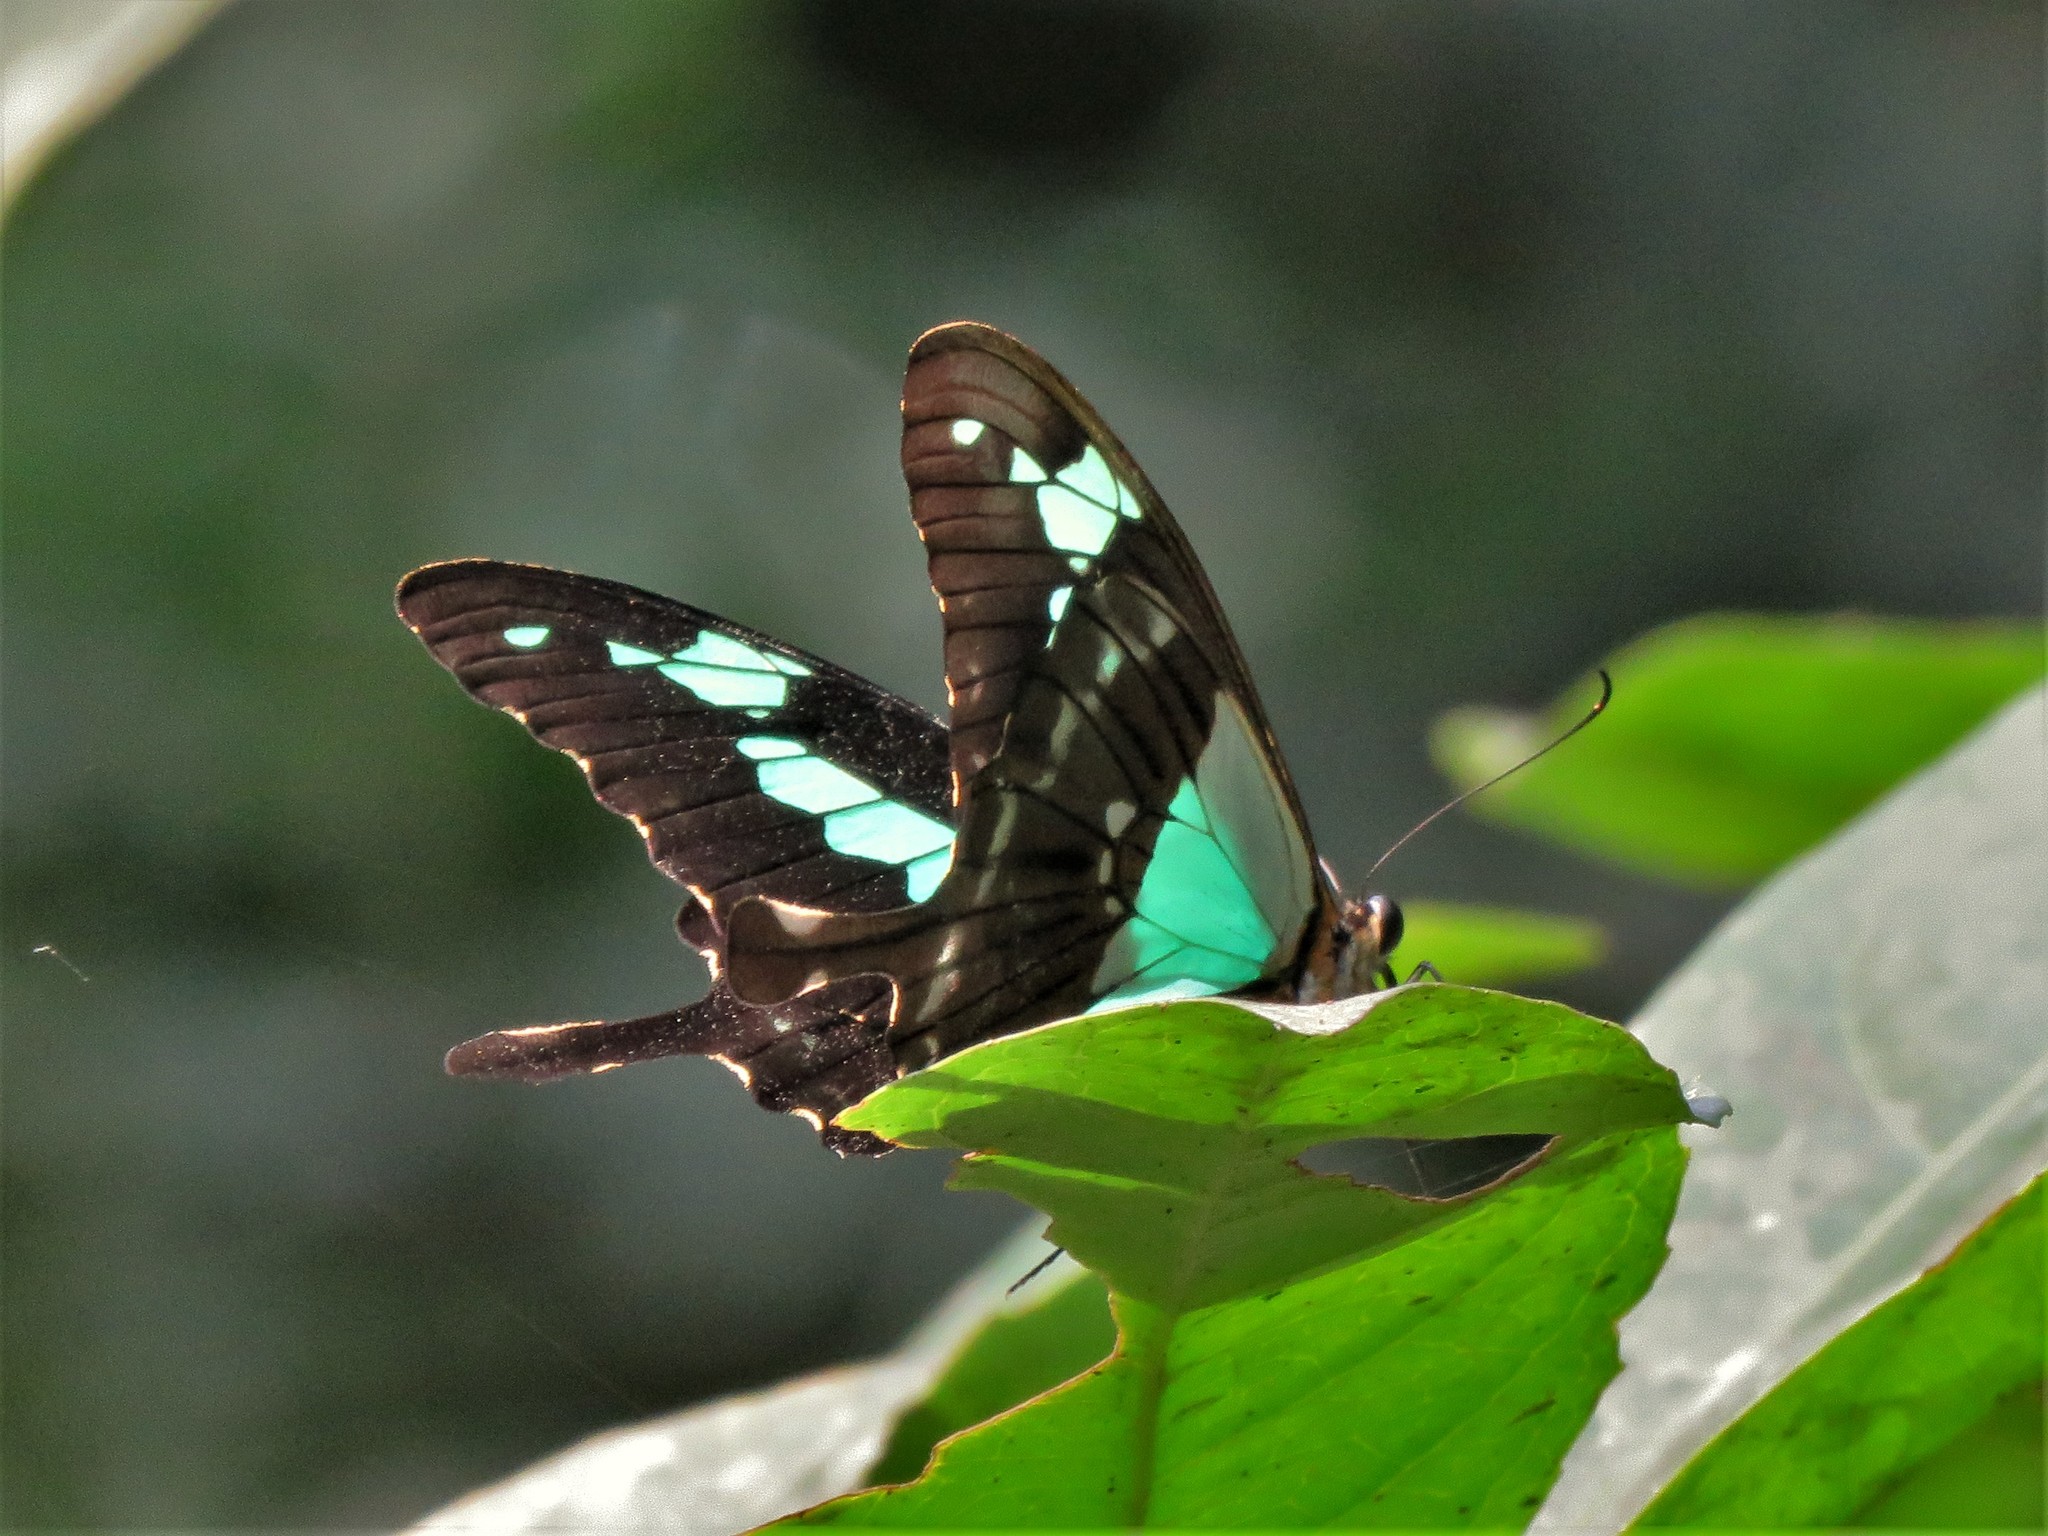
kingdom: Animalia
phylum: Arthropoda
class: Insecta
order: Lepidoptera
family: Papilionidae
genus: Papilio
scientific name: Papilio phorcas
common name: Apple-green swallowtail
